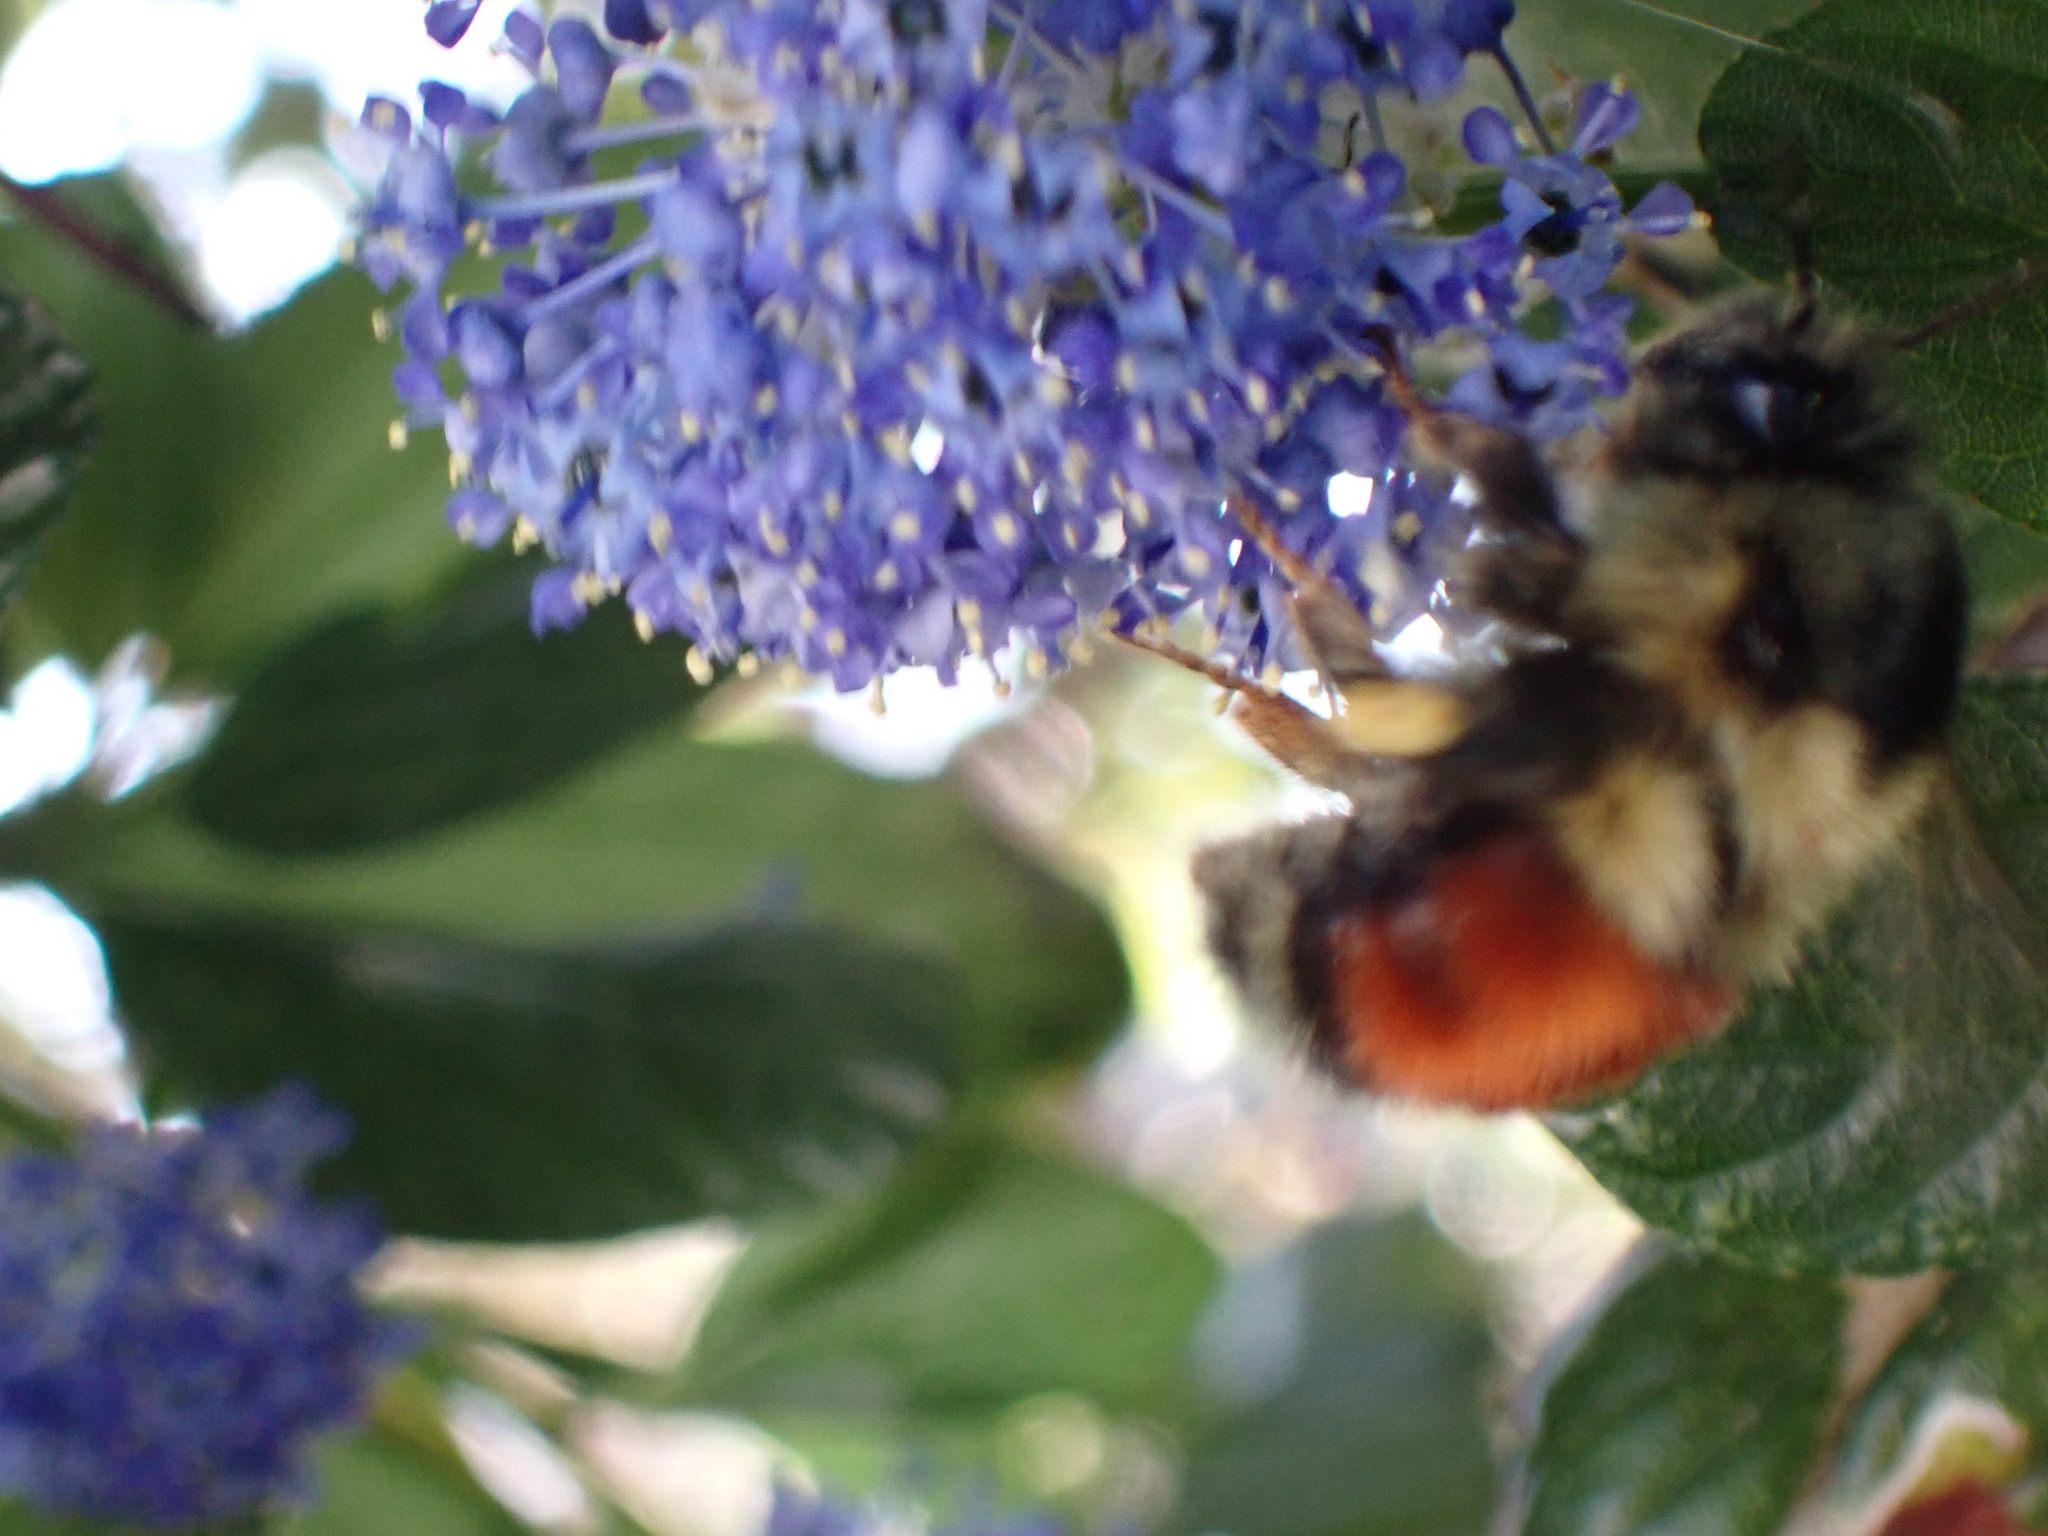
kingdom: Animalia
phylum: Arthropoda
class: Insecta
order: Hymenoptera
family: Apidae
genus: Bombus
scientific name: Bombus melanopygus
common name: Black tail bumble bee
